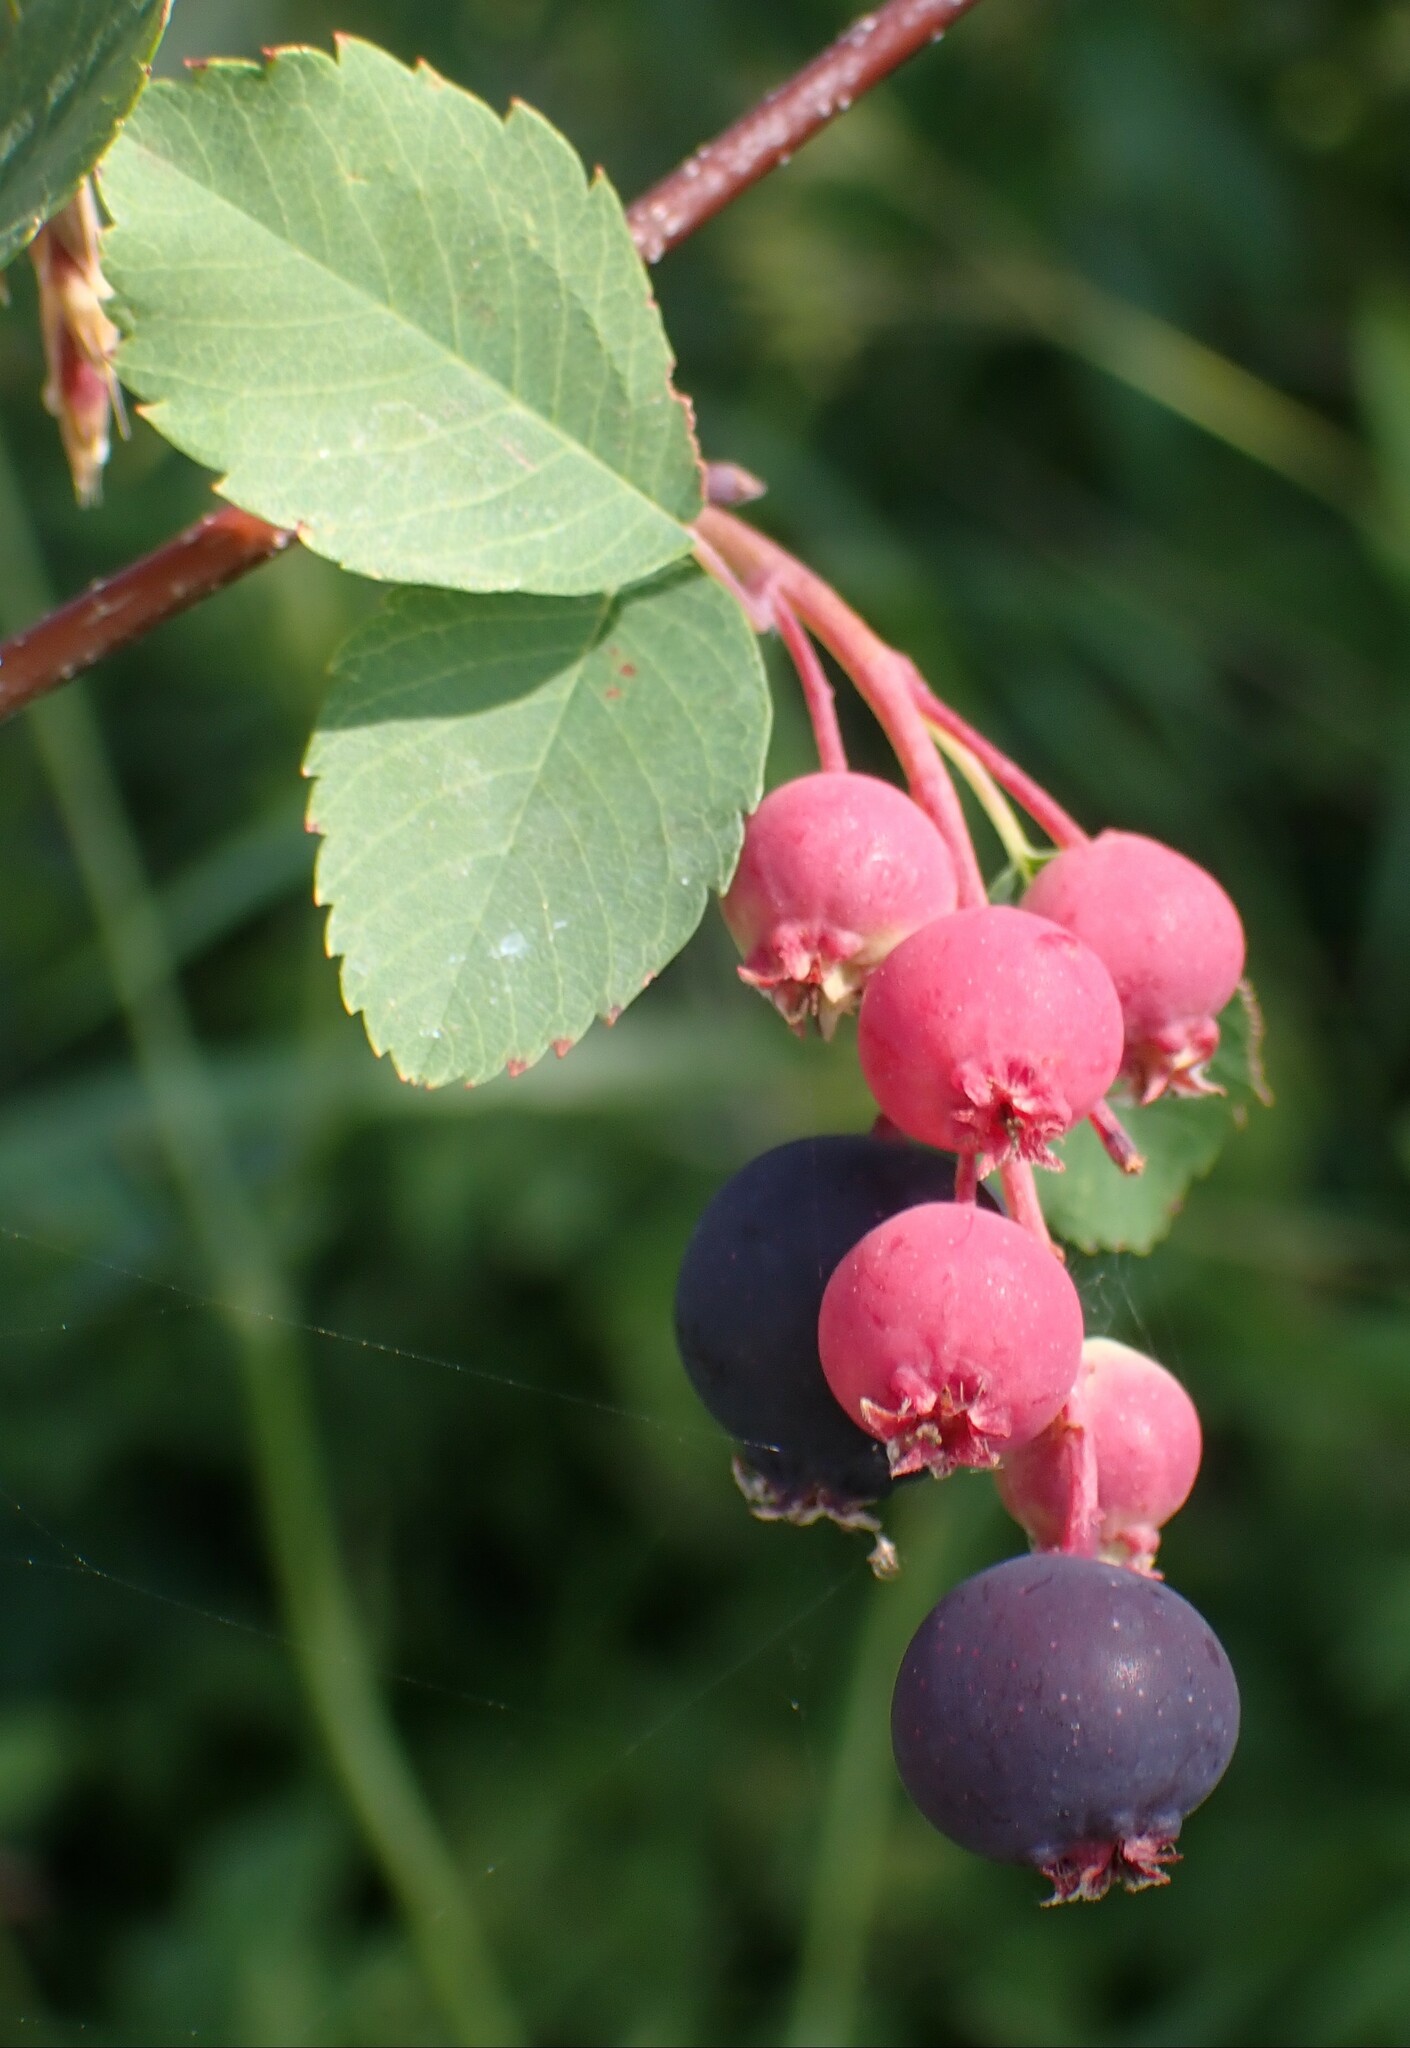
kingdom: Plantae
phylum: Tracheophyta
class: Magnoliopsida
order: Rosales
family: Rosaceae
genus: Amelanchier
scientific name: Amelanchier alnifolia
